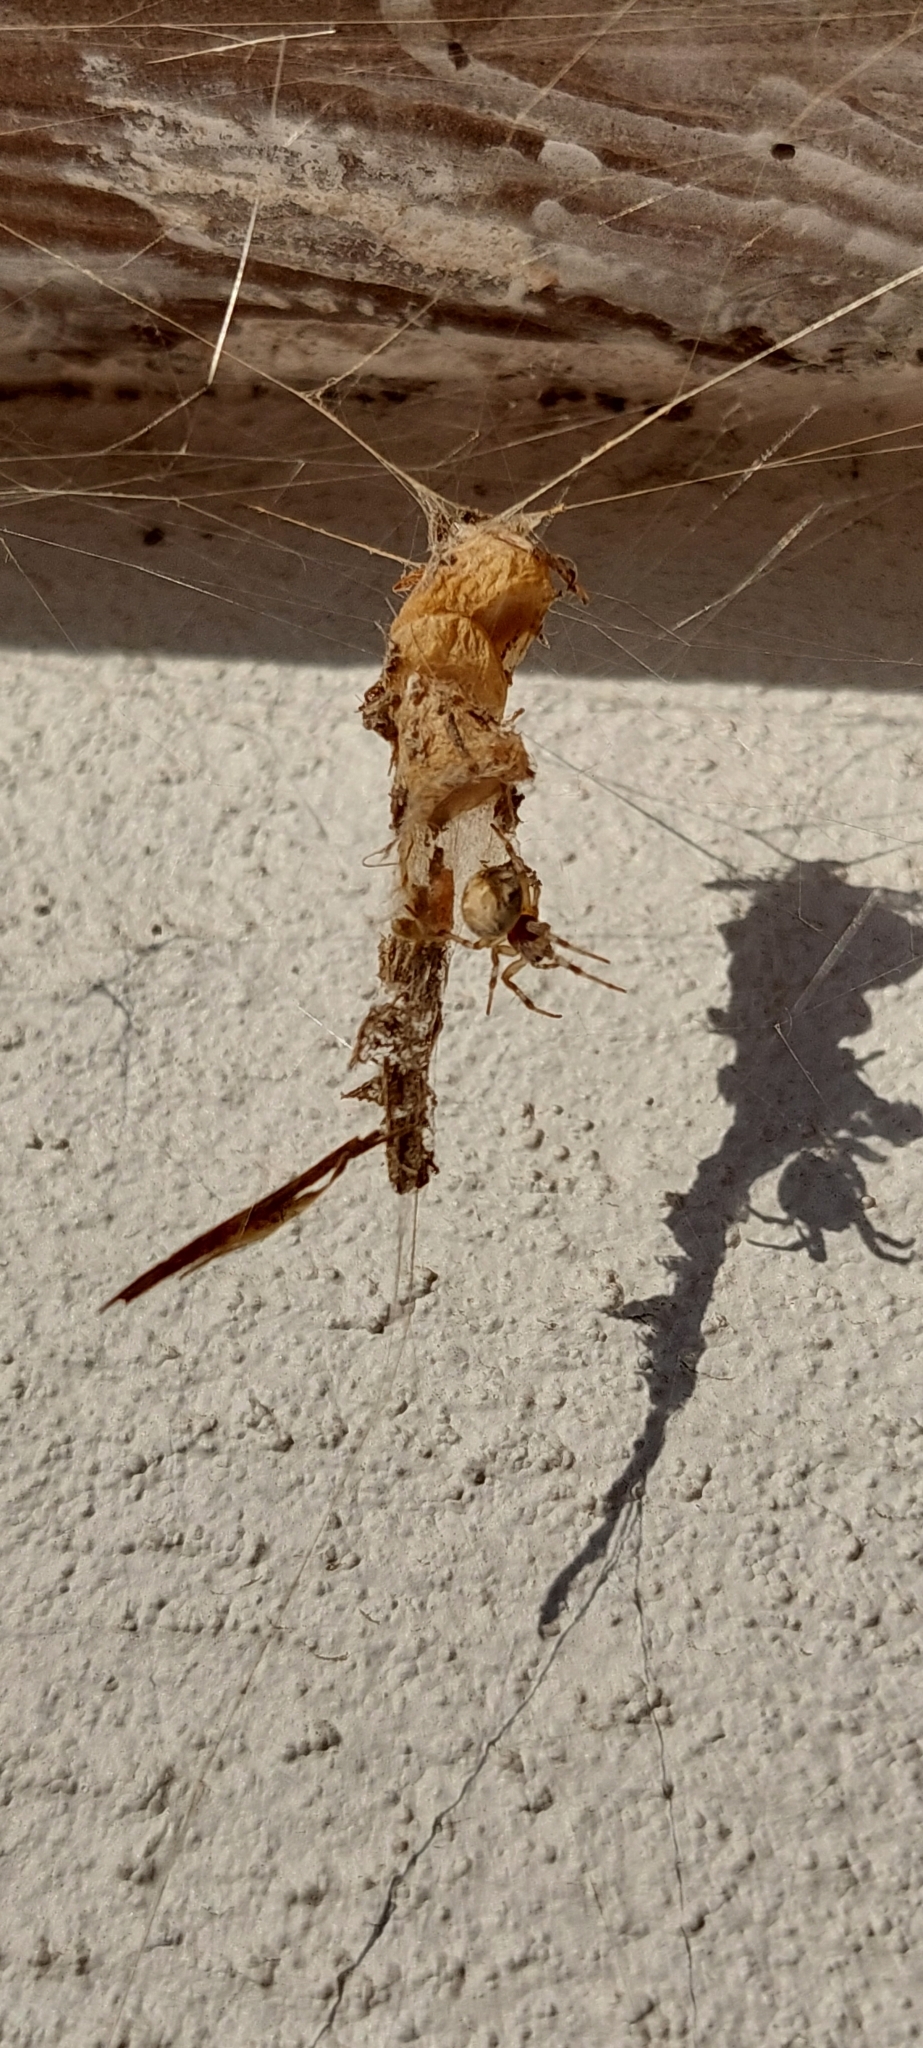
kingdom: Animalia
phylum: Arthropoda
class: Arachnida
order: Araneae
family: Araneidae
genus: Metepeira
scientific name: Metepeira
